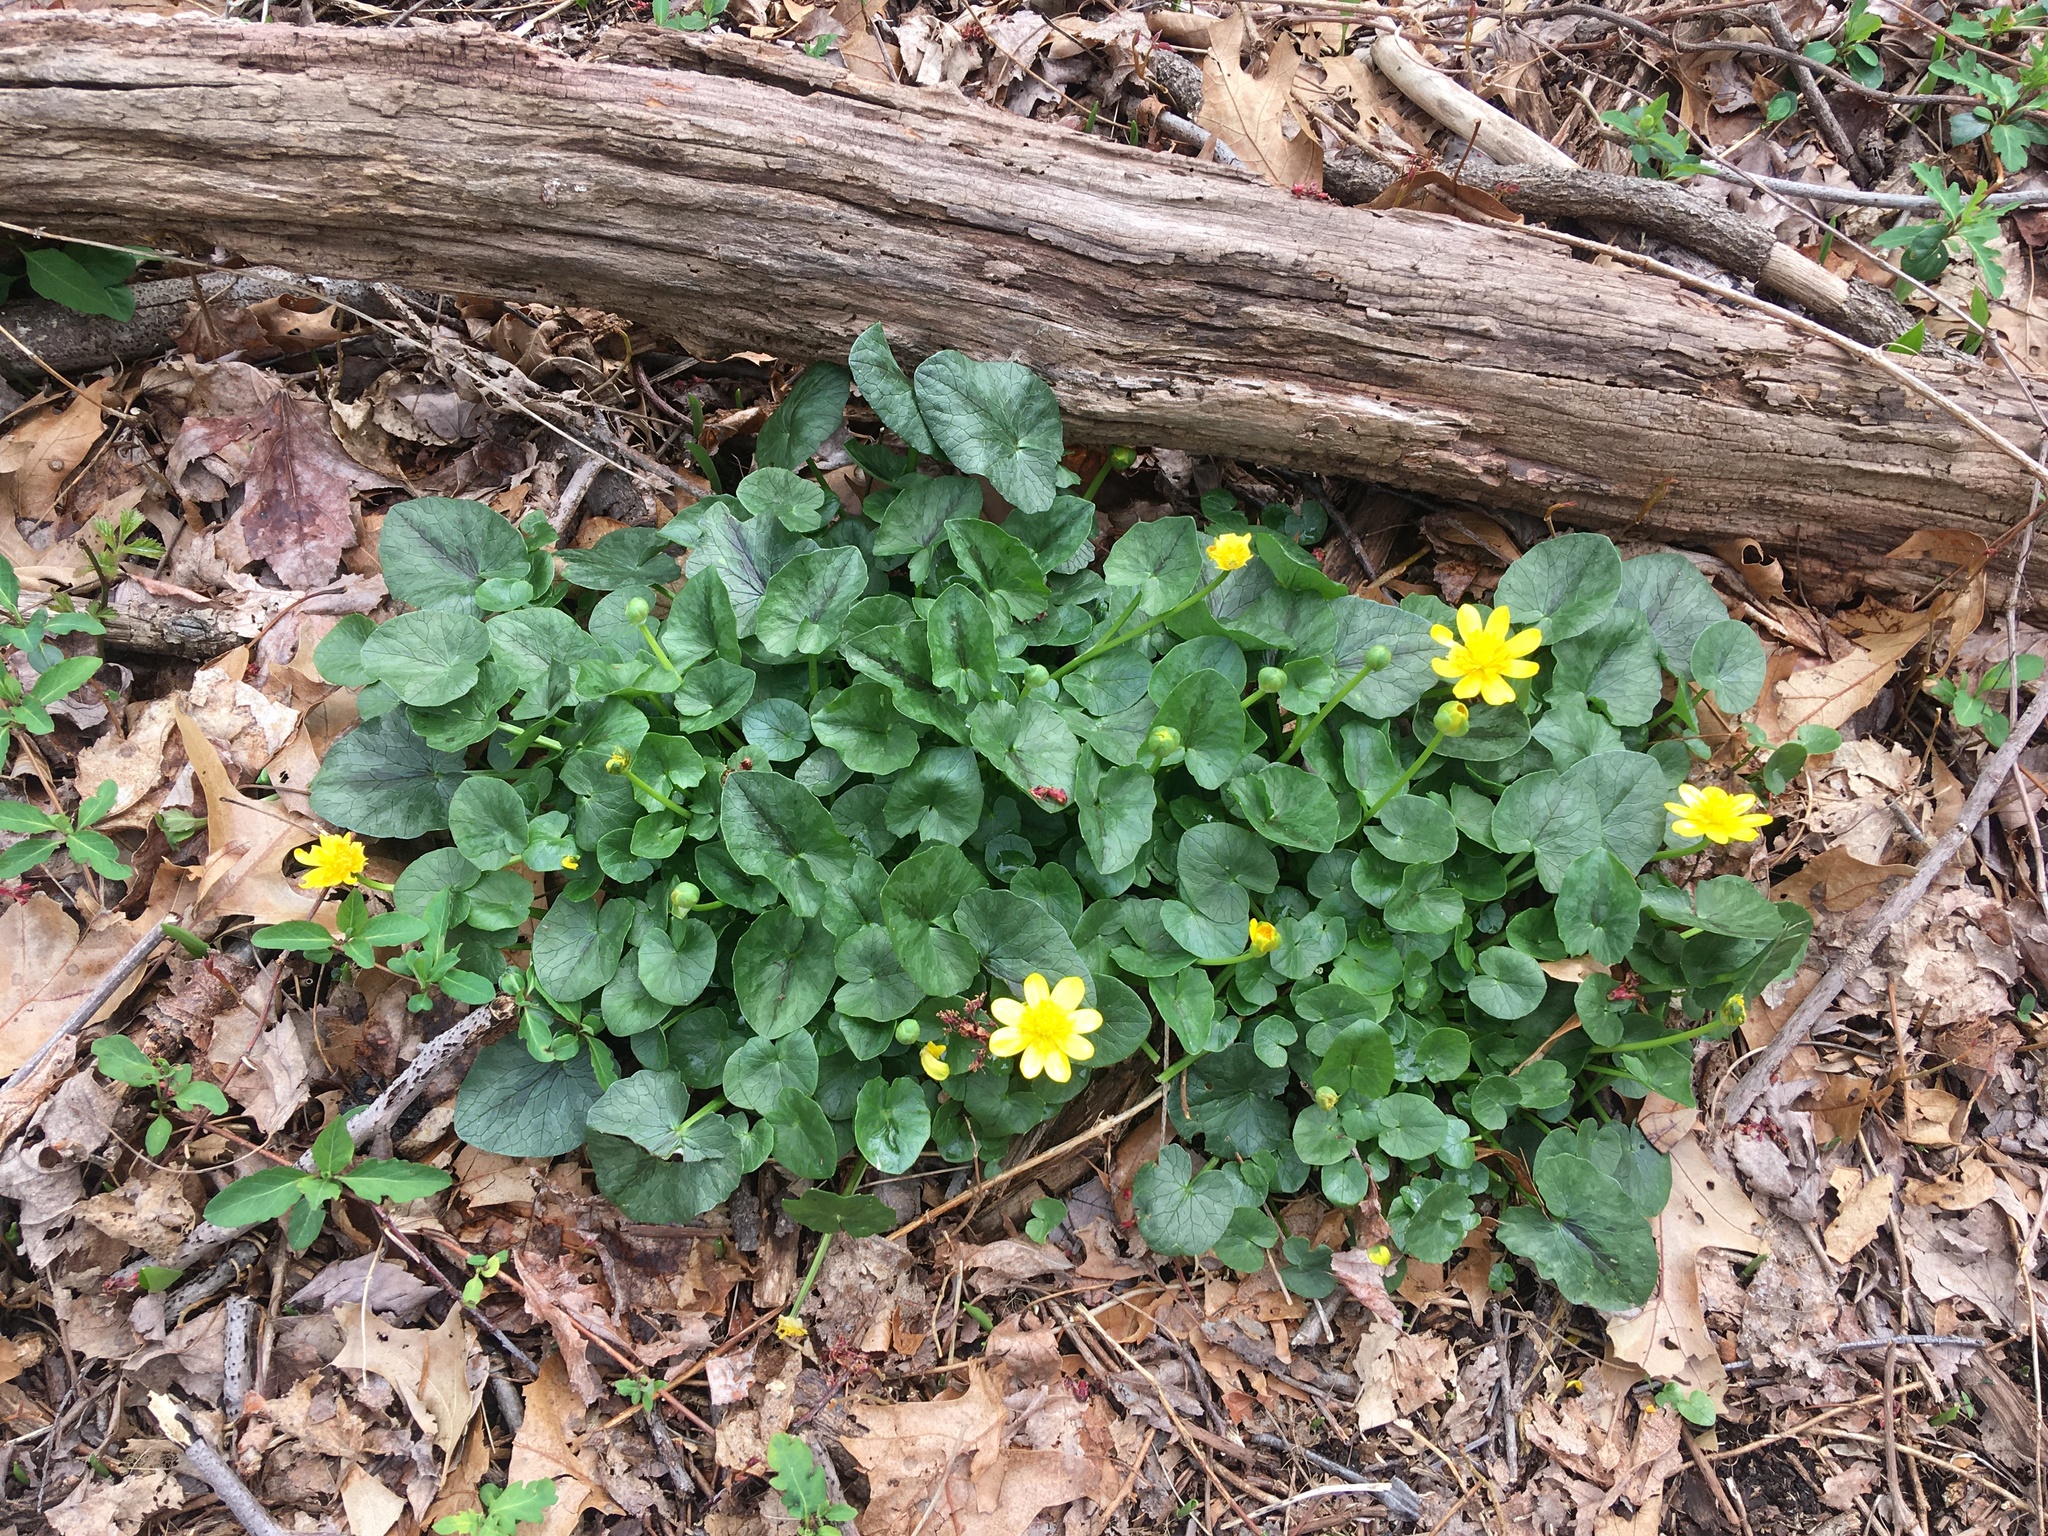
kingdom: Plantae
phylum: Tracheophyta
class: Magnoliopsida
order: Ranunculales
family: Ranunculaceae
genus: Ficaria
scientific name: Ficaria verna
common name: Lesser celandine
